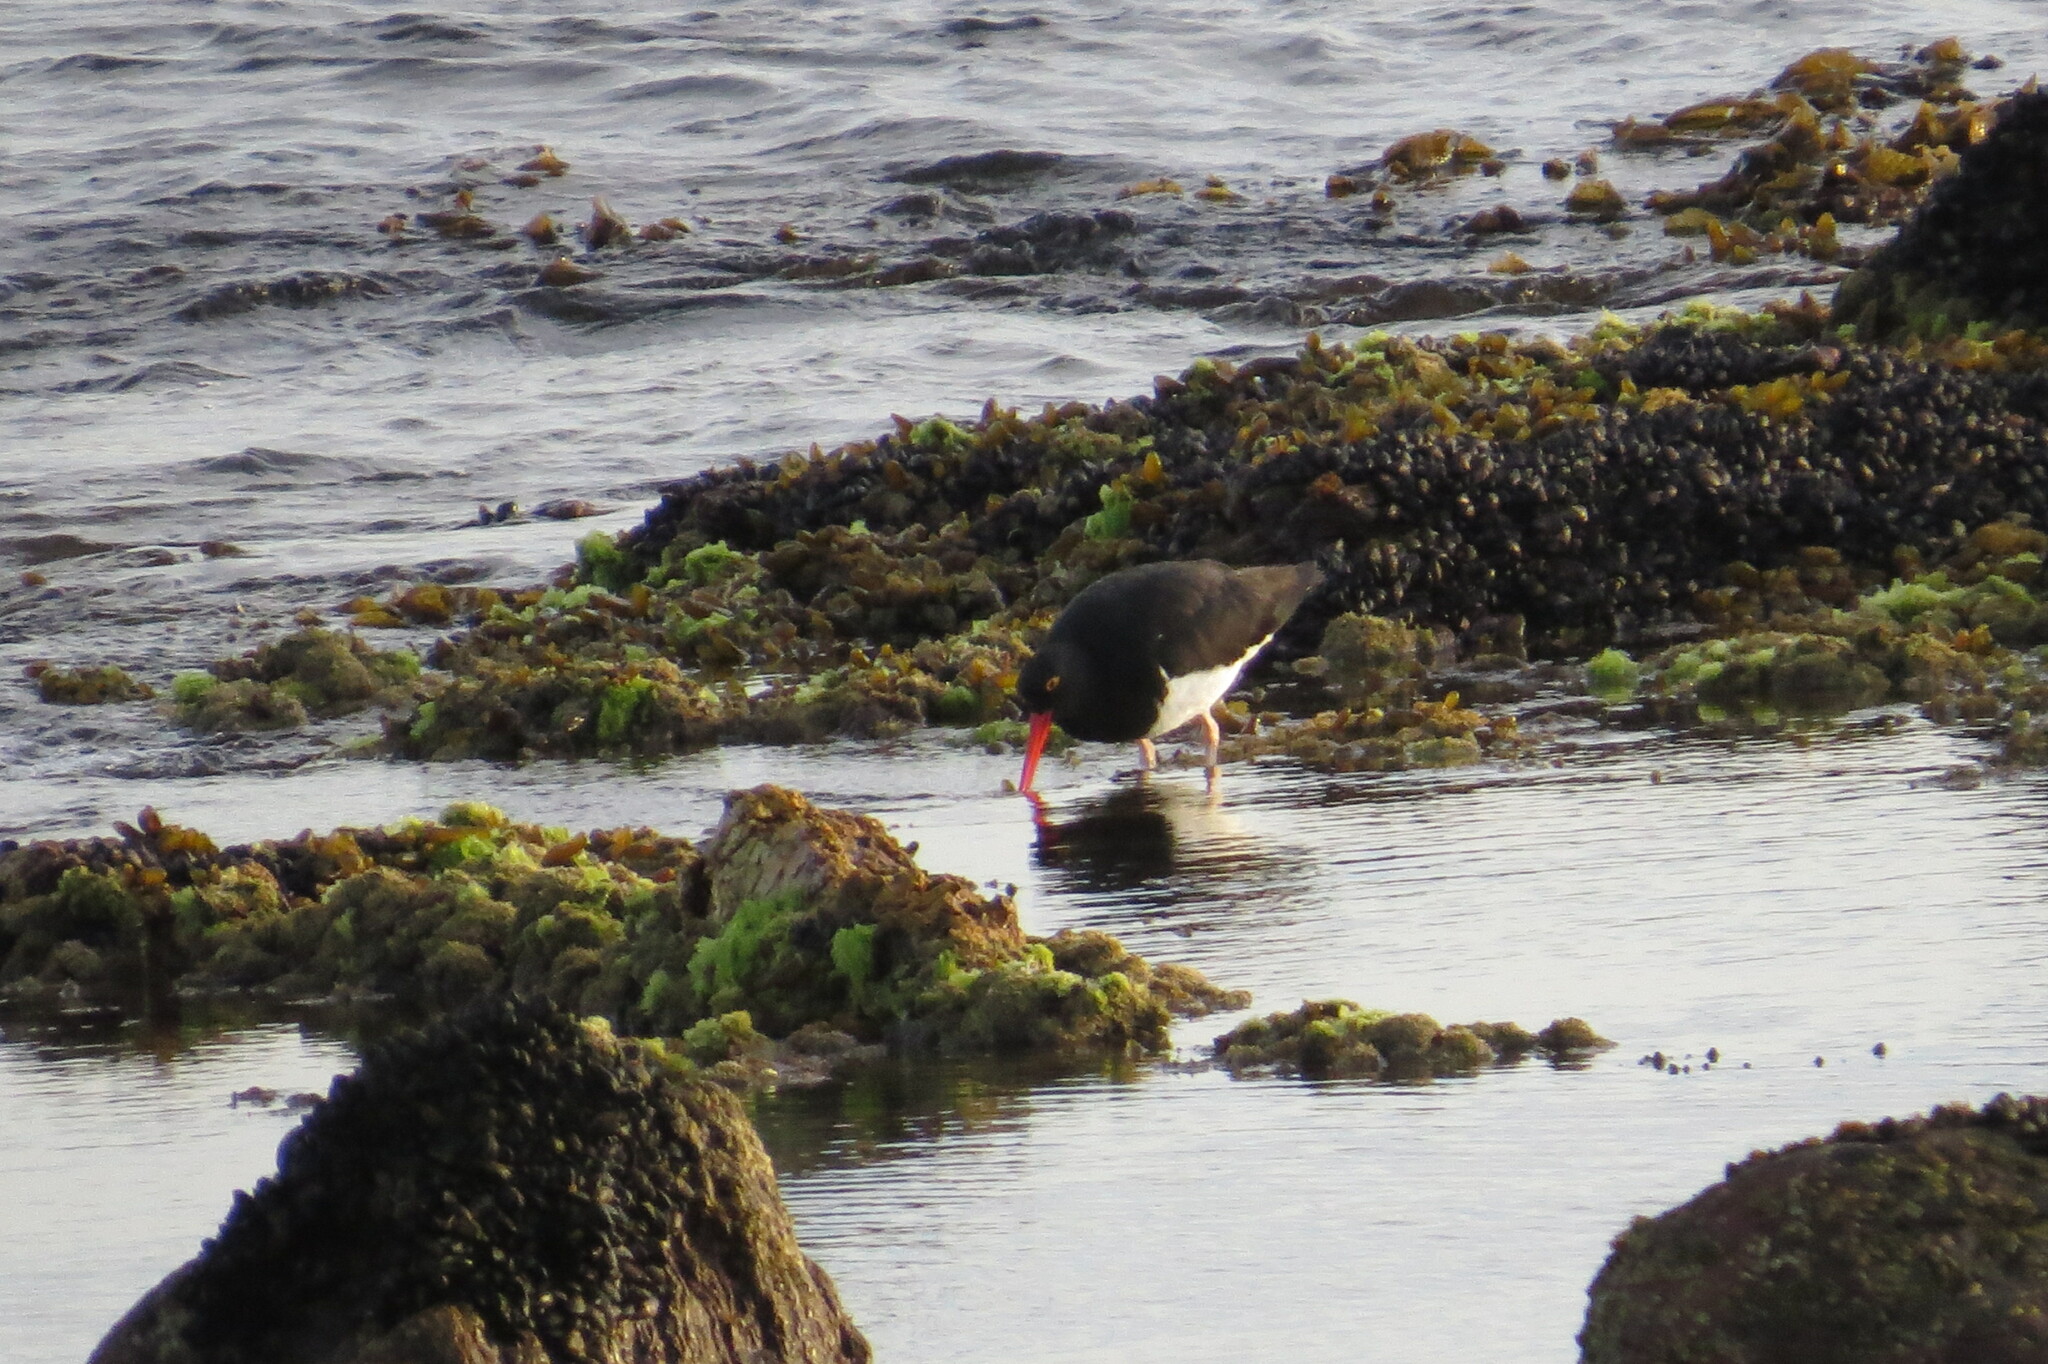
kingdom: Animalia
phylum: Chordata
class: Aves
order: Charadriiformes
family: Haematopodidae
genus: Haematopus
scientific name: Haematopus leucopodus
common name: Magellanic oystercatcher
